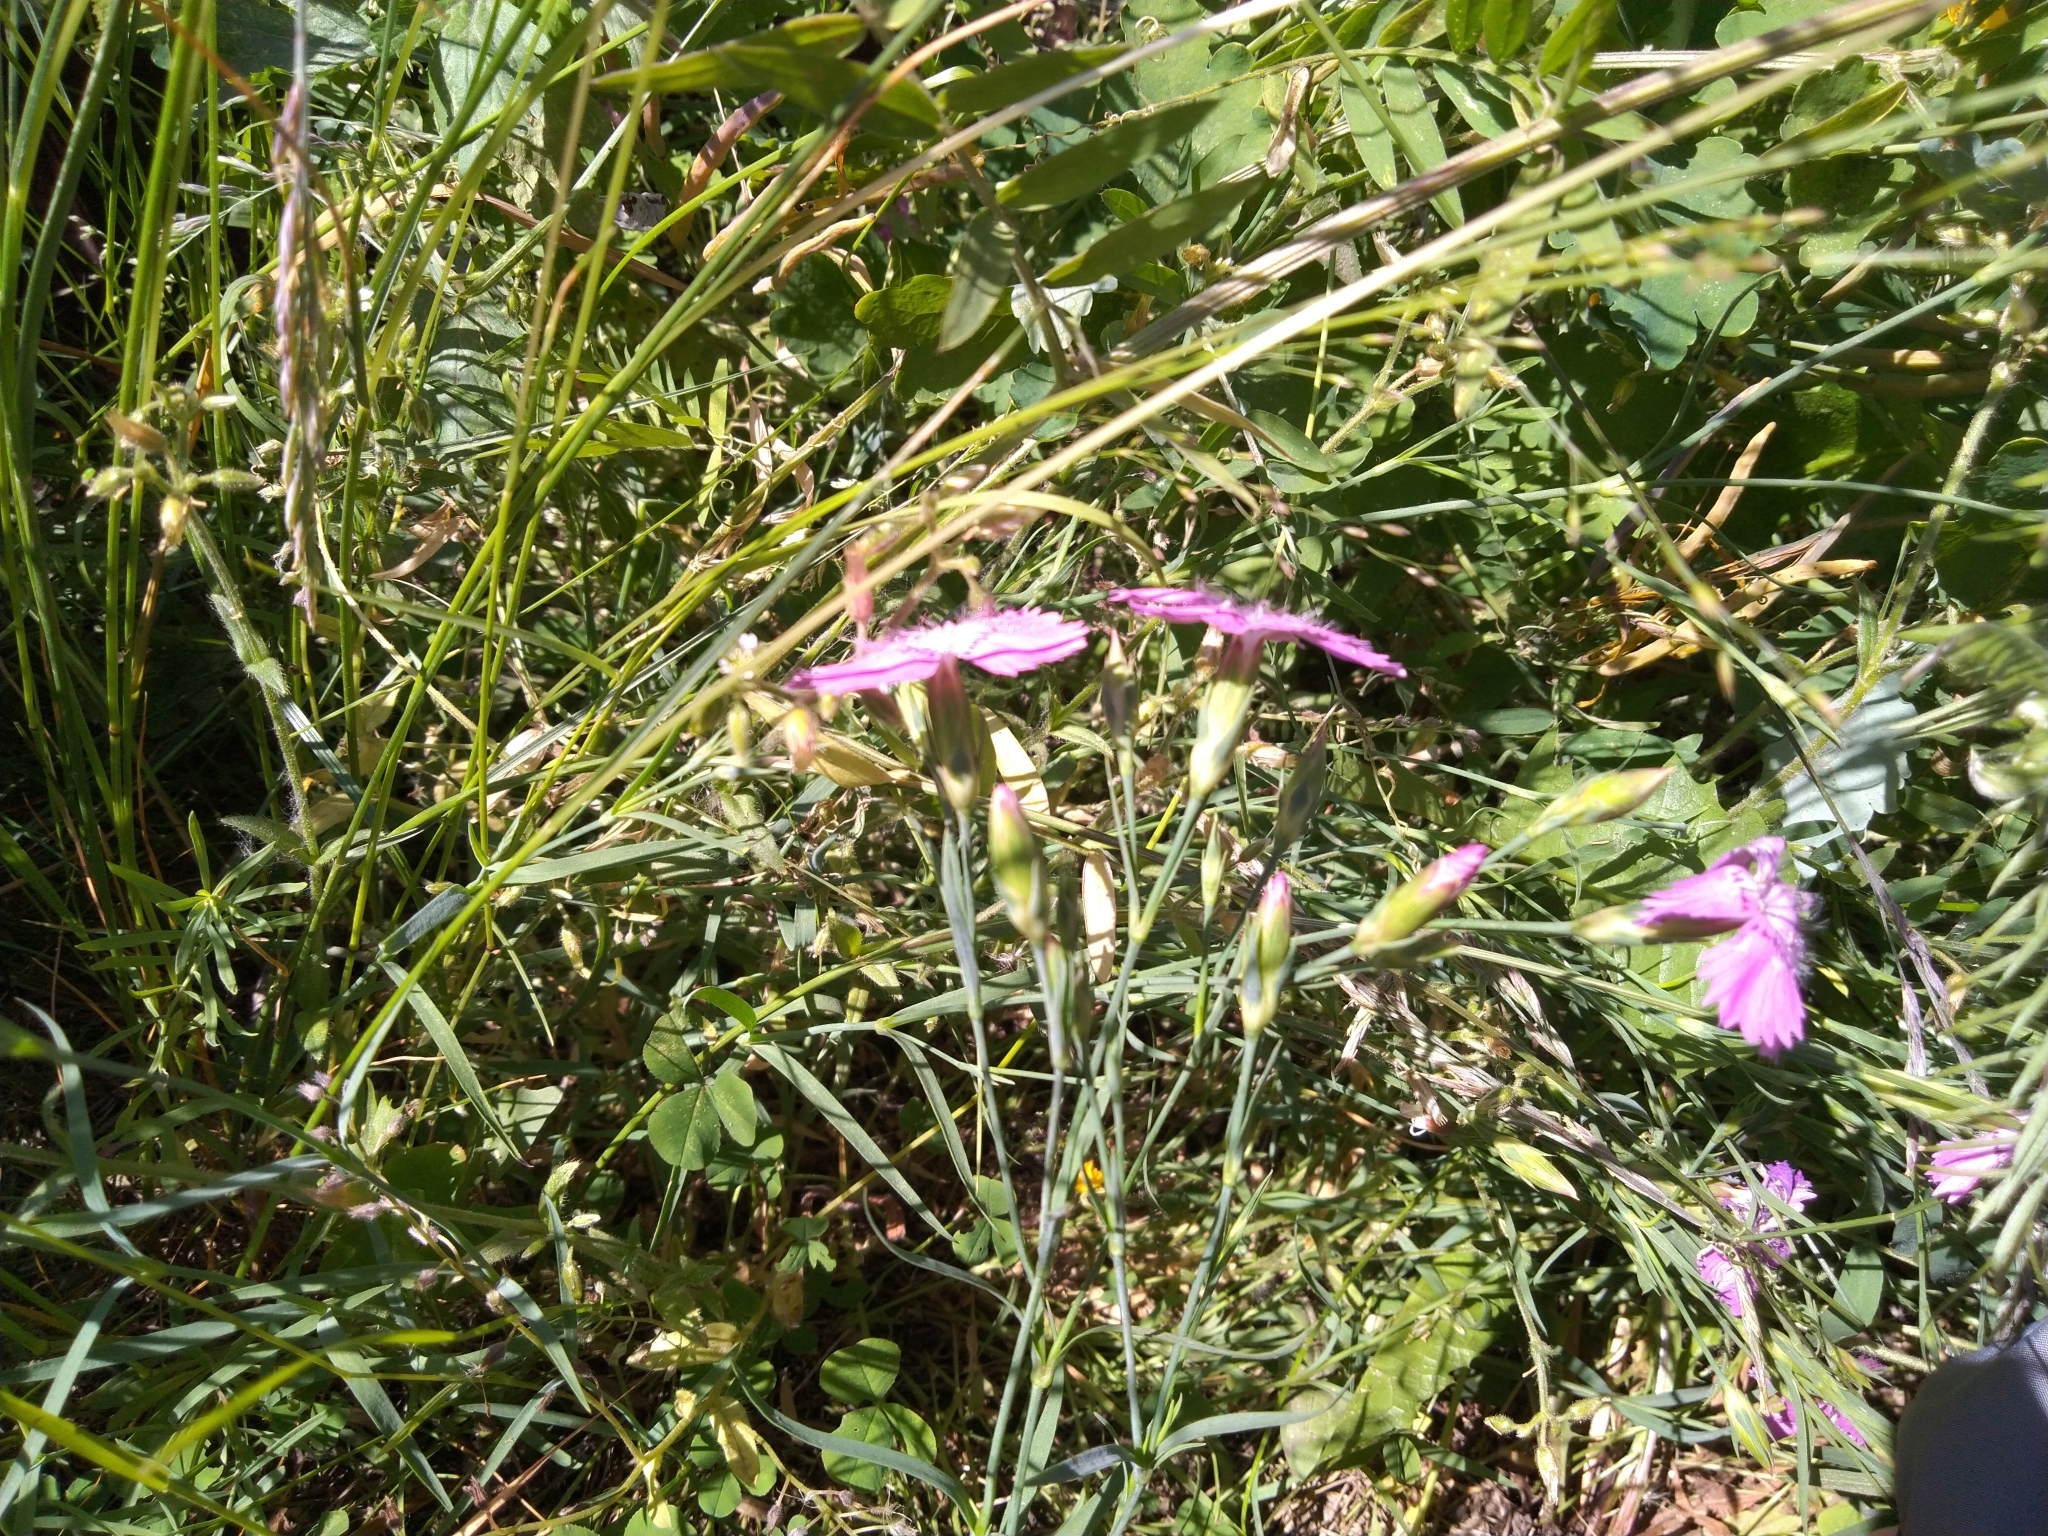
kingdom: Plantae
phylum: Tracheophyta
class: Magnoliopsida
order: Caryophyllales
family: Caryophyllaceae
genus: Dianthus
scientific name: Dianthus chinensis
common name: Rainbow pink
